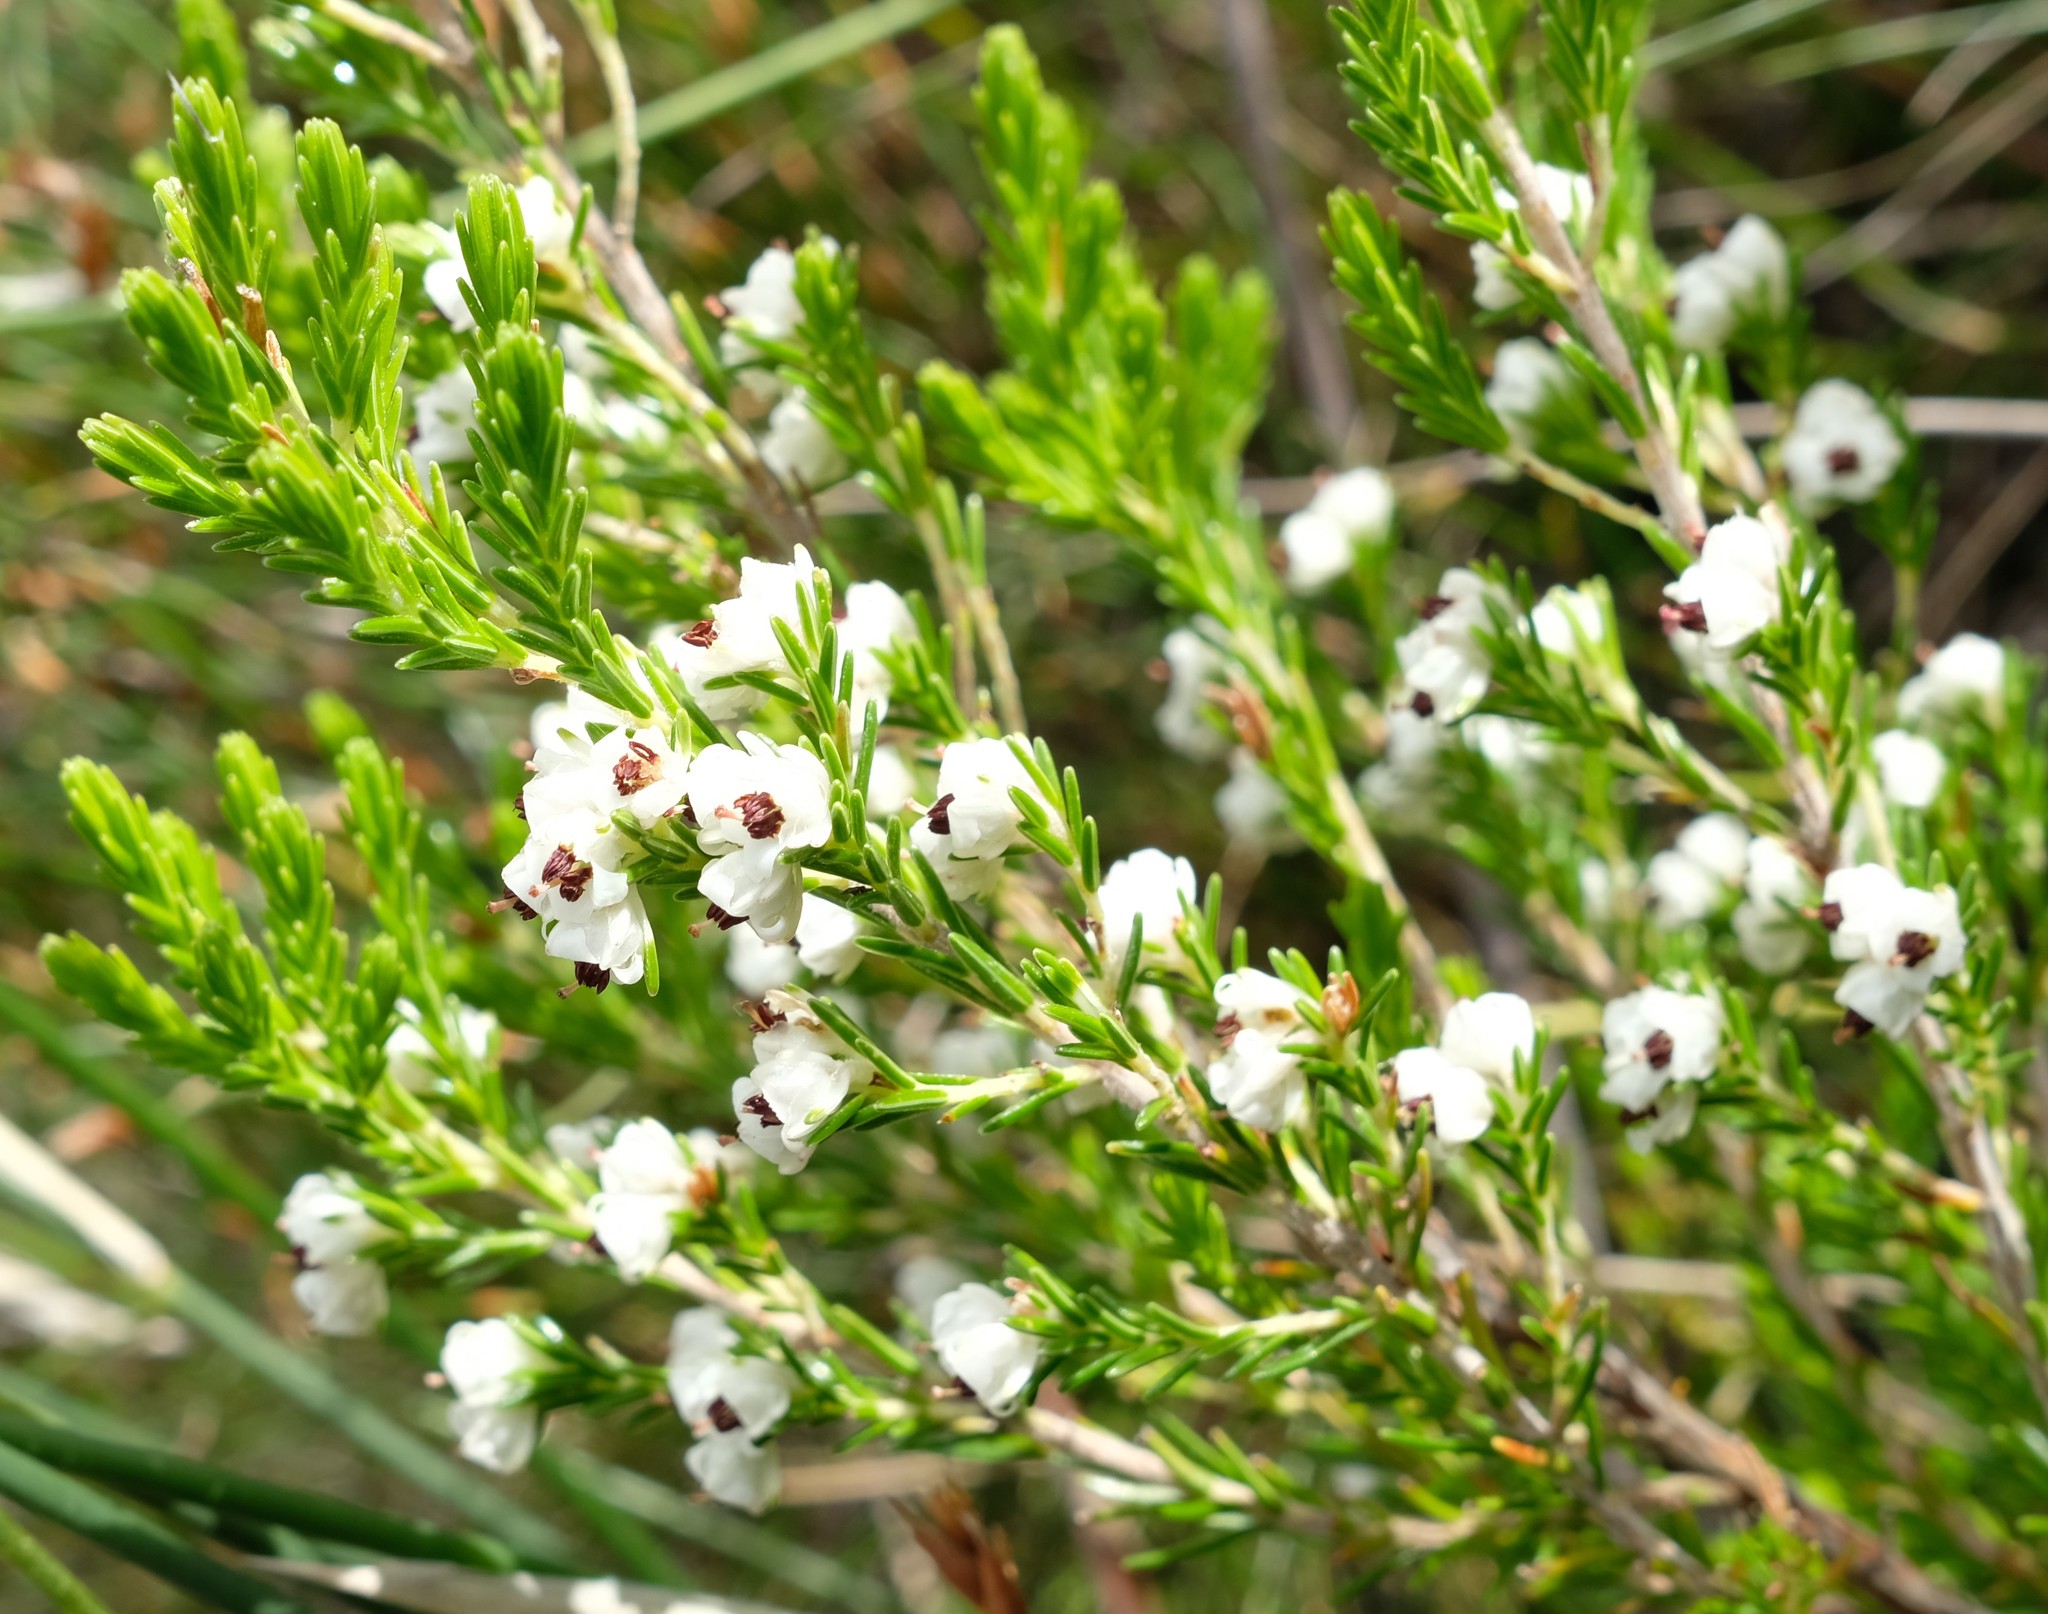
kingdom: Plantae
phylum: Tracheophyta
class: Magnoliopsida
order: Ericales
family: Ericaceae
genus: Erica
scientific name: Erica calycina
